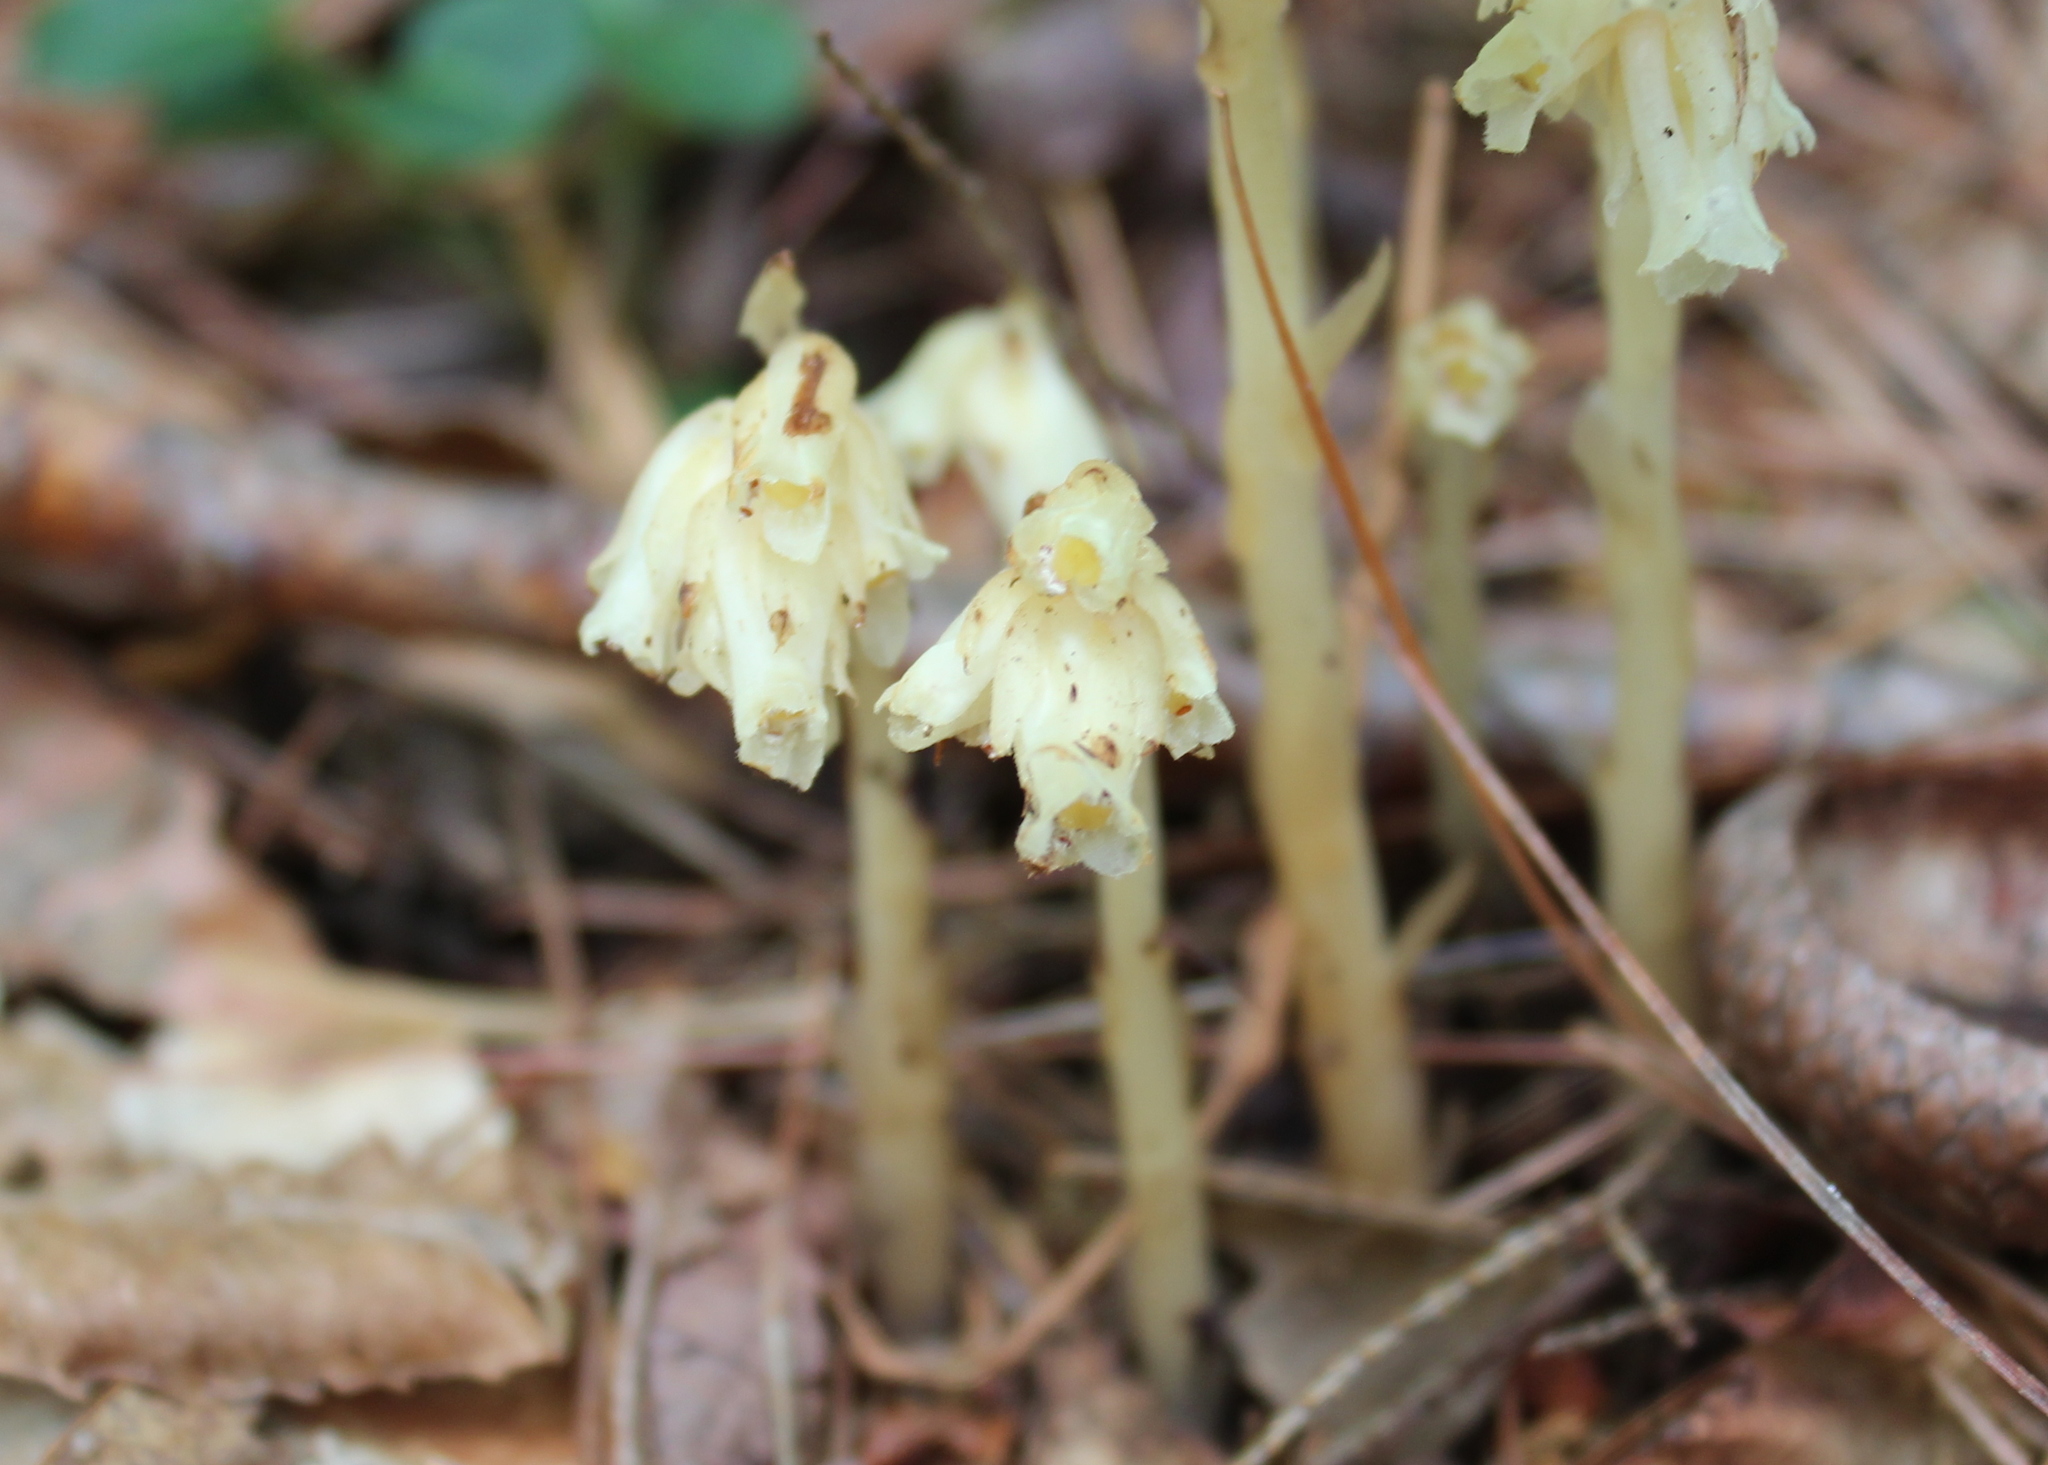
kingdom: Plantae
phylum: Tracheophyta
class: Magnoliopsida
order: Ericales
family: Ericaceae
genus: Hypopitys
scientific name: Hypopitys monotropa
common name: Yellow bird's-nest
